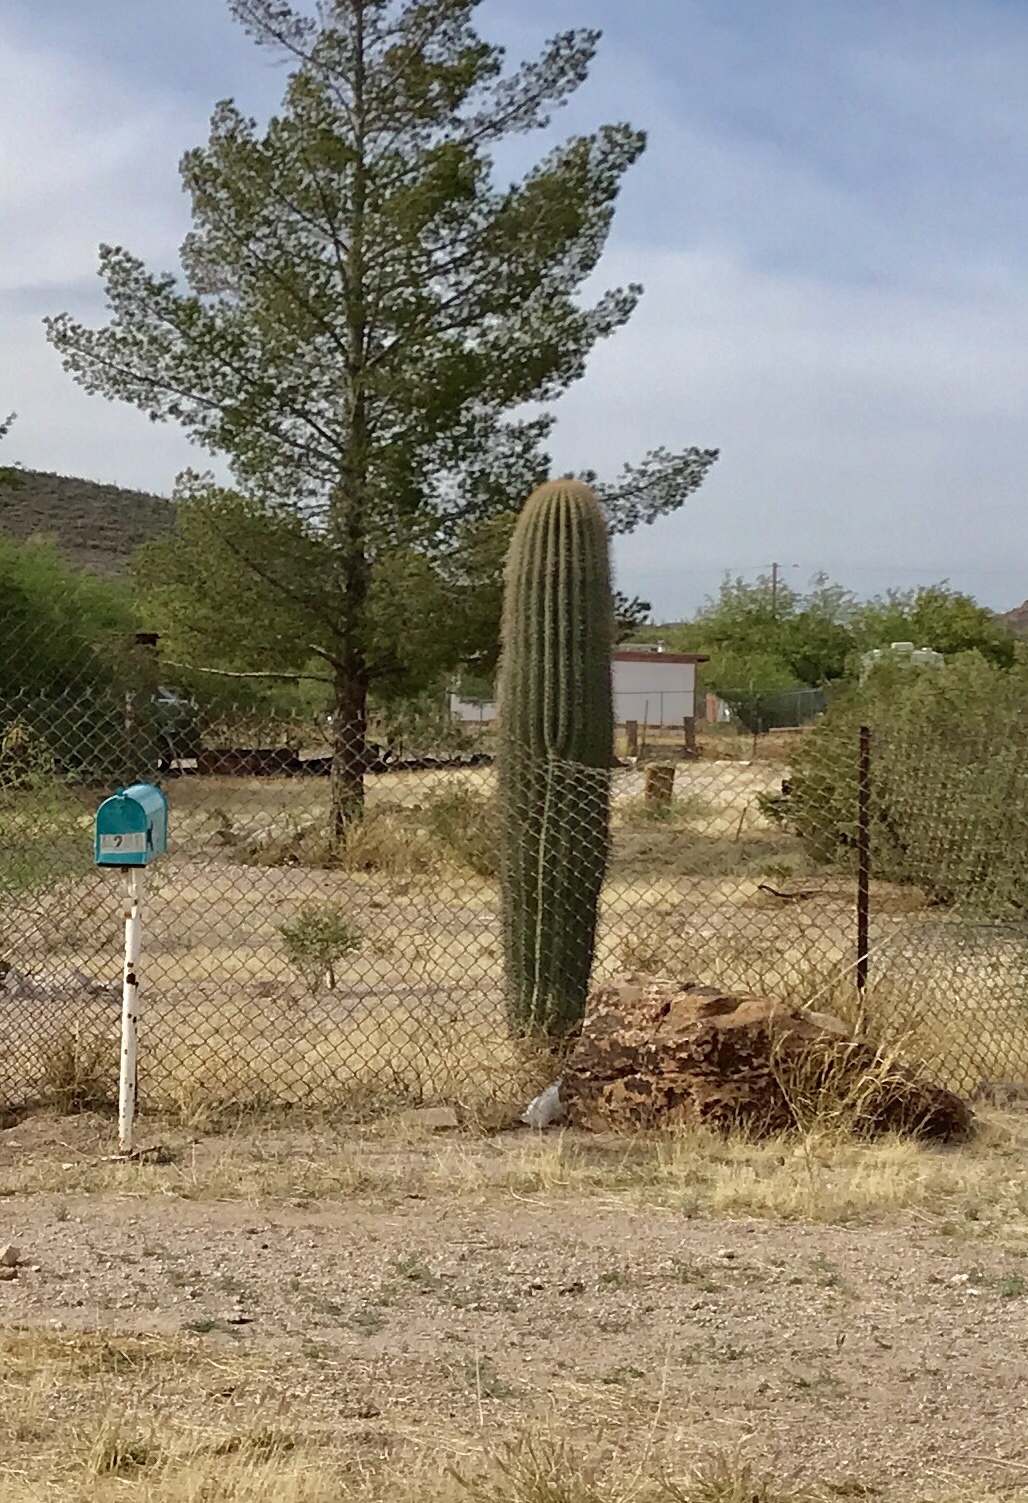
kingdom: Plantae
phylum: Tracheophyta
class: Magnoliopsida
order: Caryophyllales
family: Cactaceae
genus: Carnegiea
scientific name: Carnegiea gigantea
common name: Saguaro
